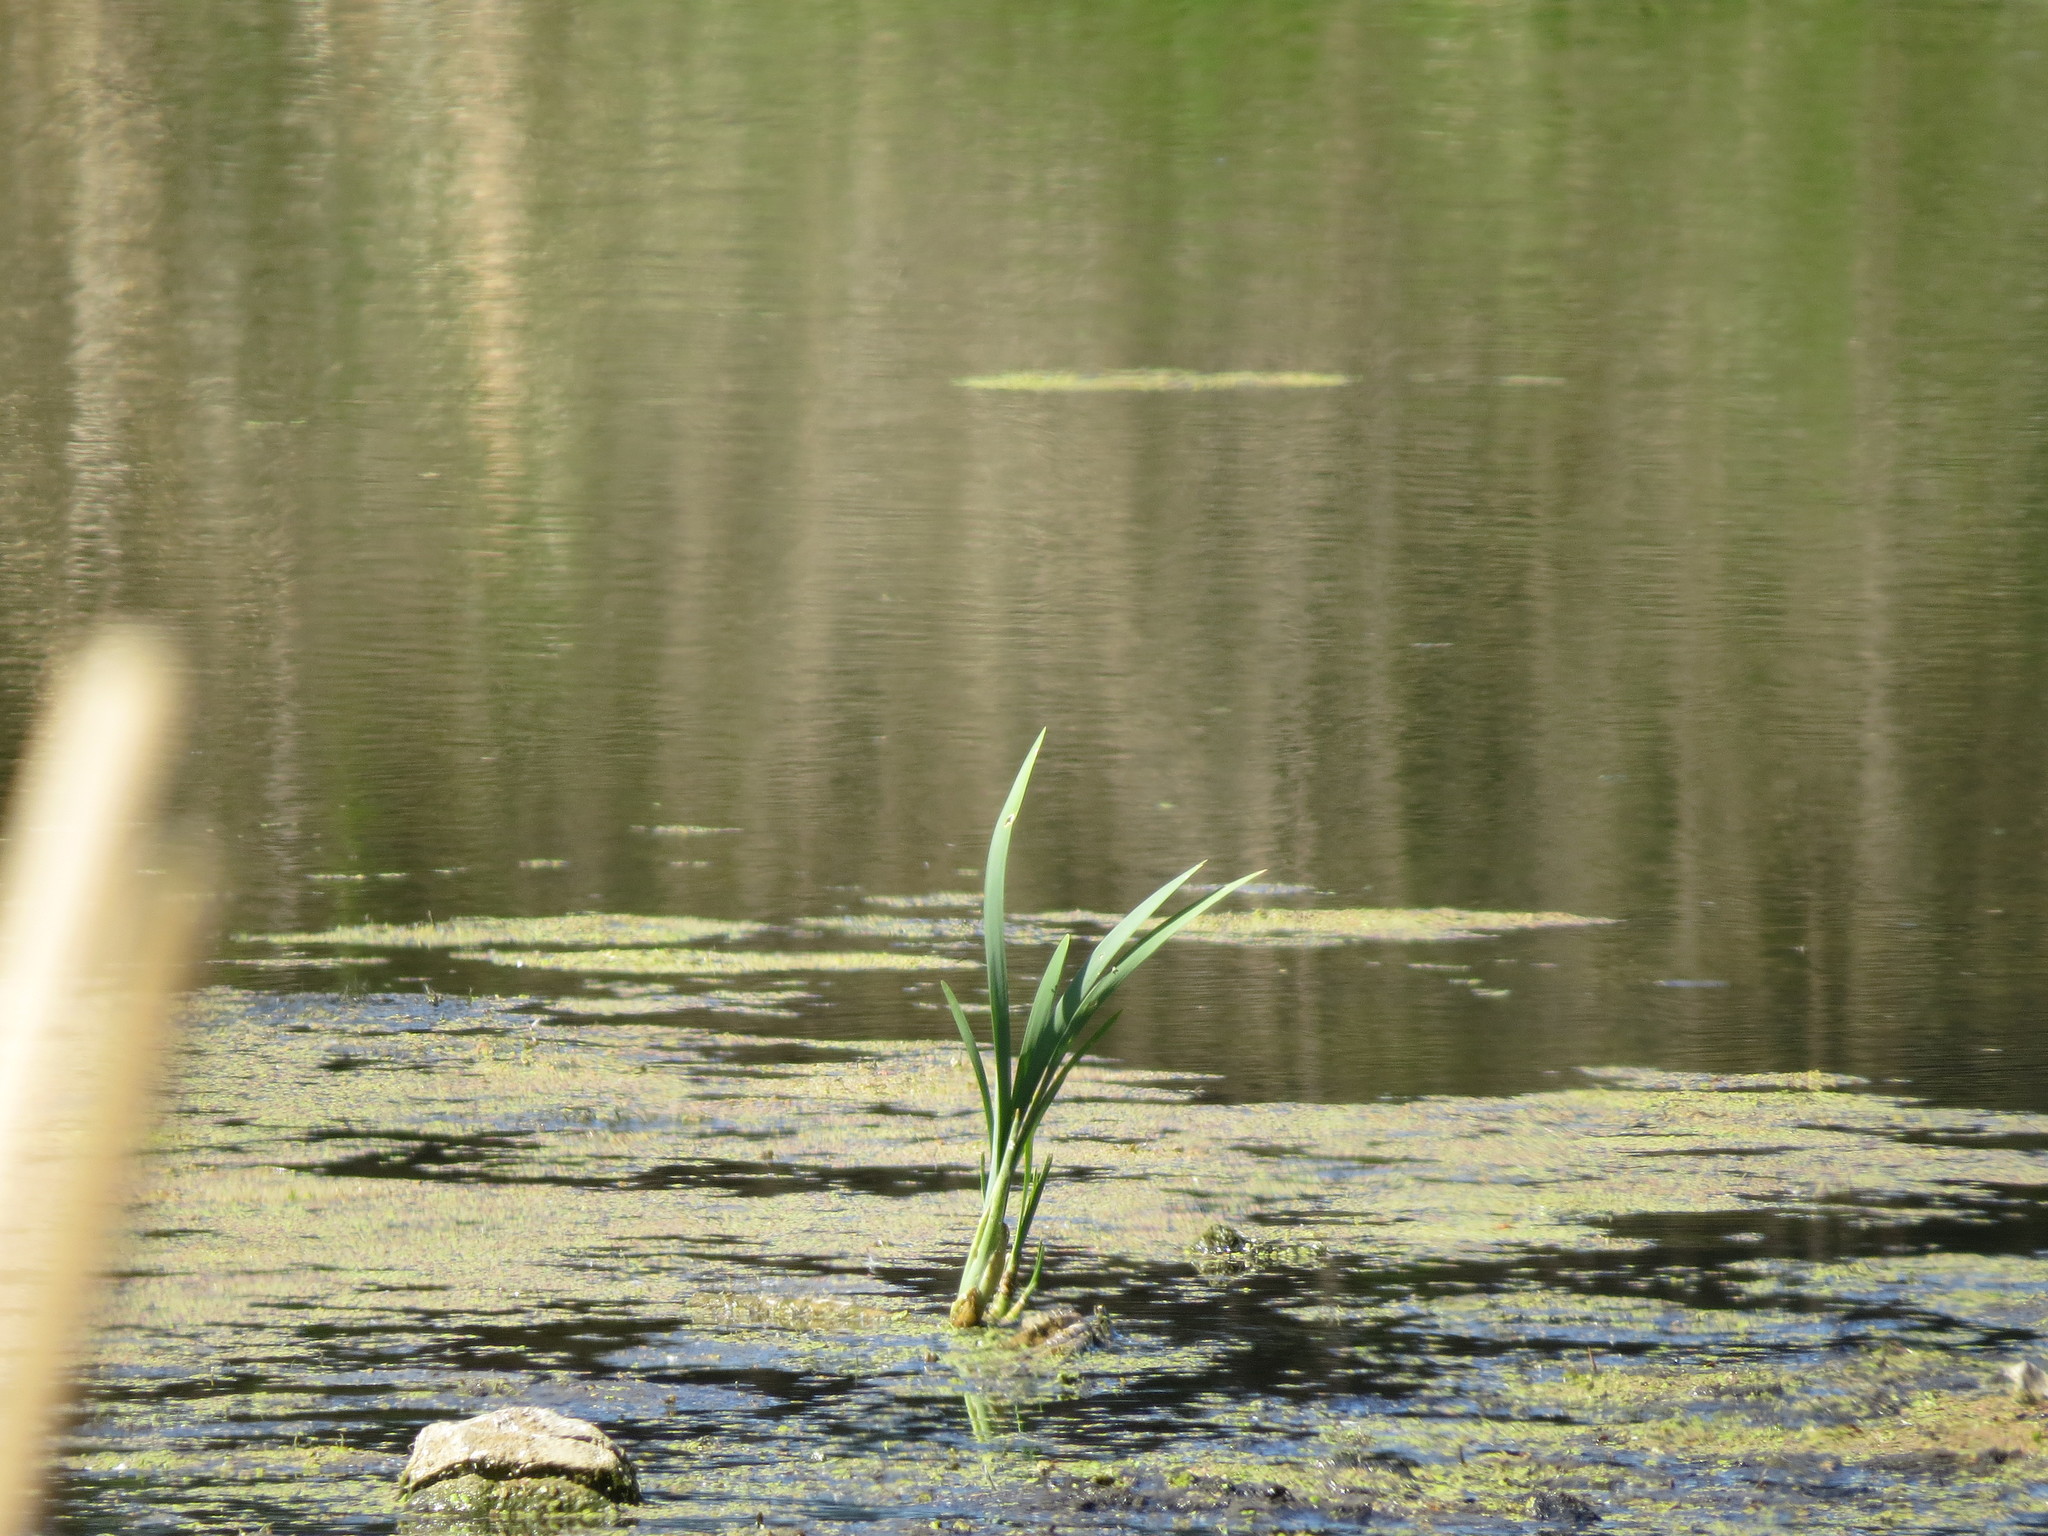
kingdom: Plantae
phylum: Tracheophyta
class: Liliopsida
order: Poales
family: Typhaceae
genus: Typha
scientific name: Typha latifolia
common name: Broadleaf cattail
